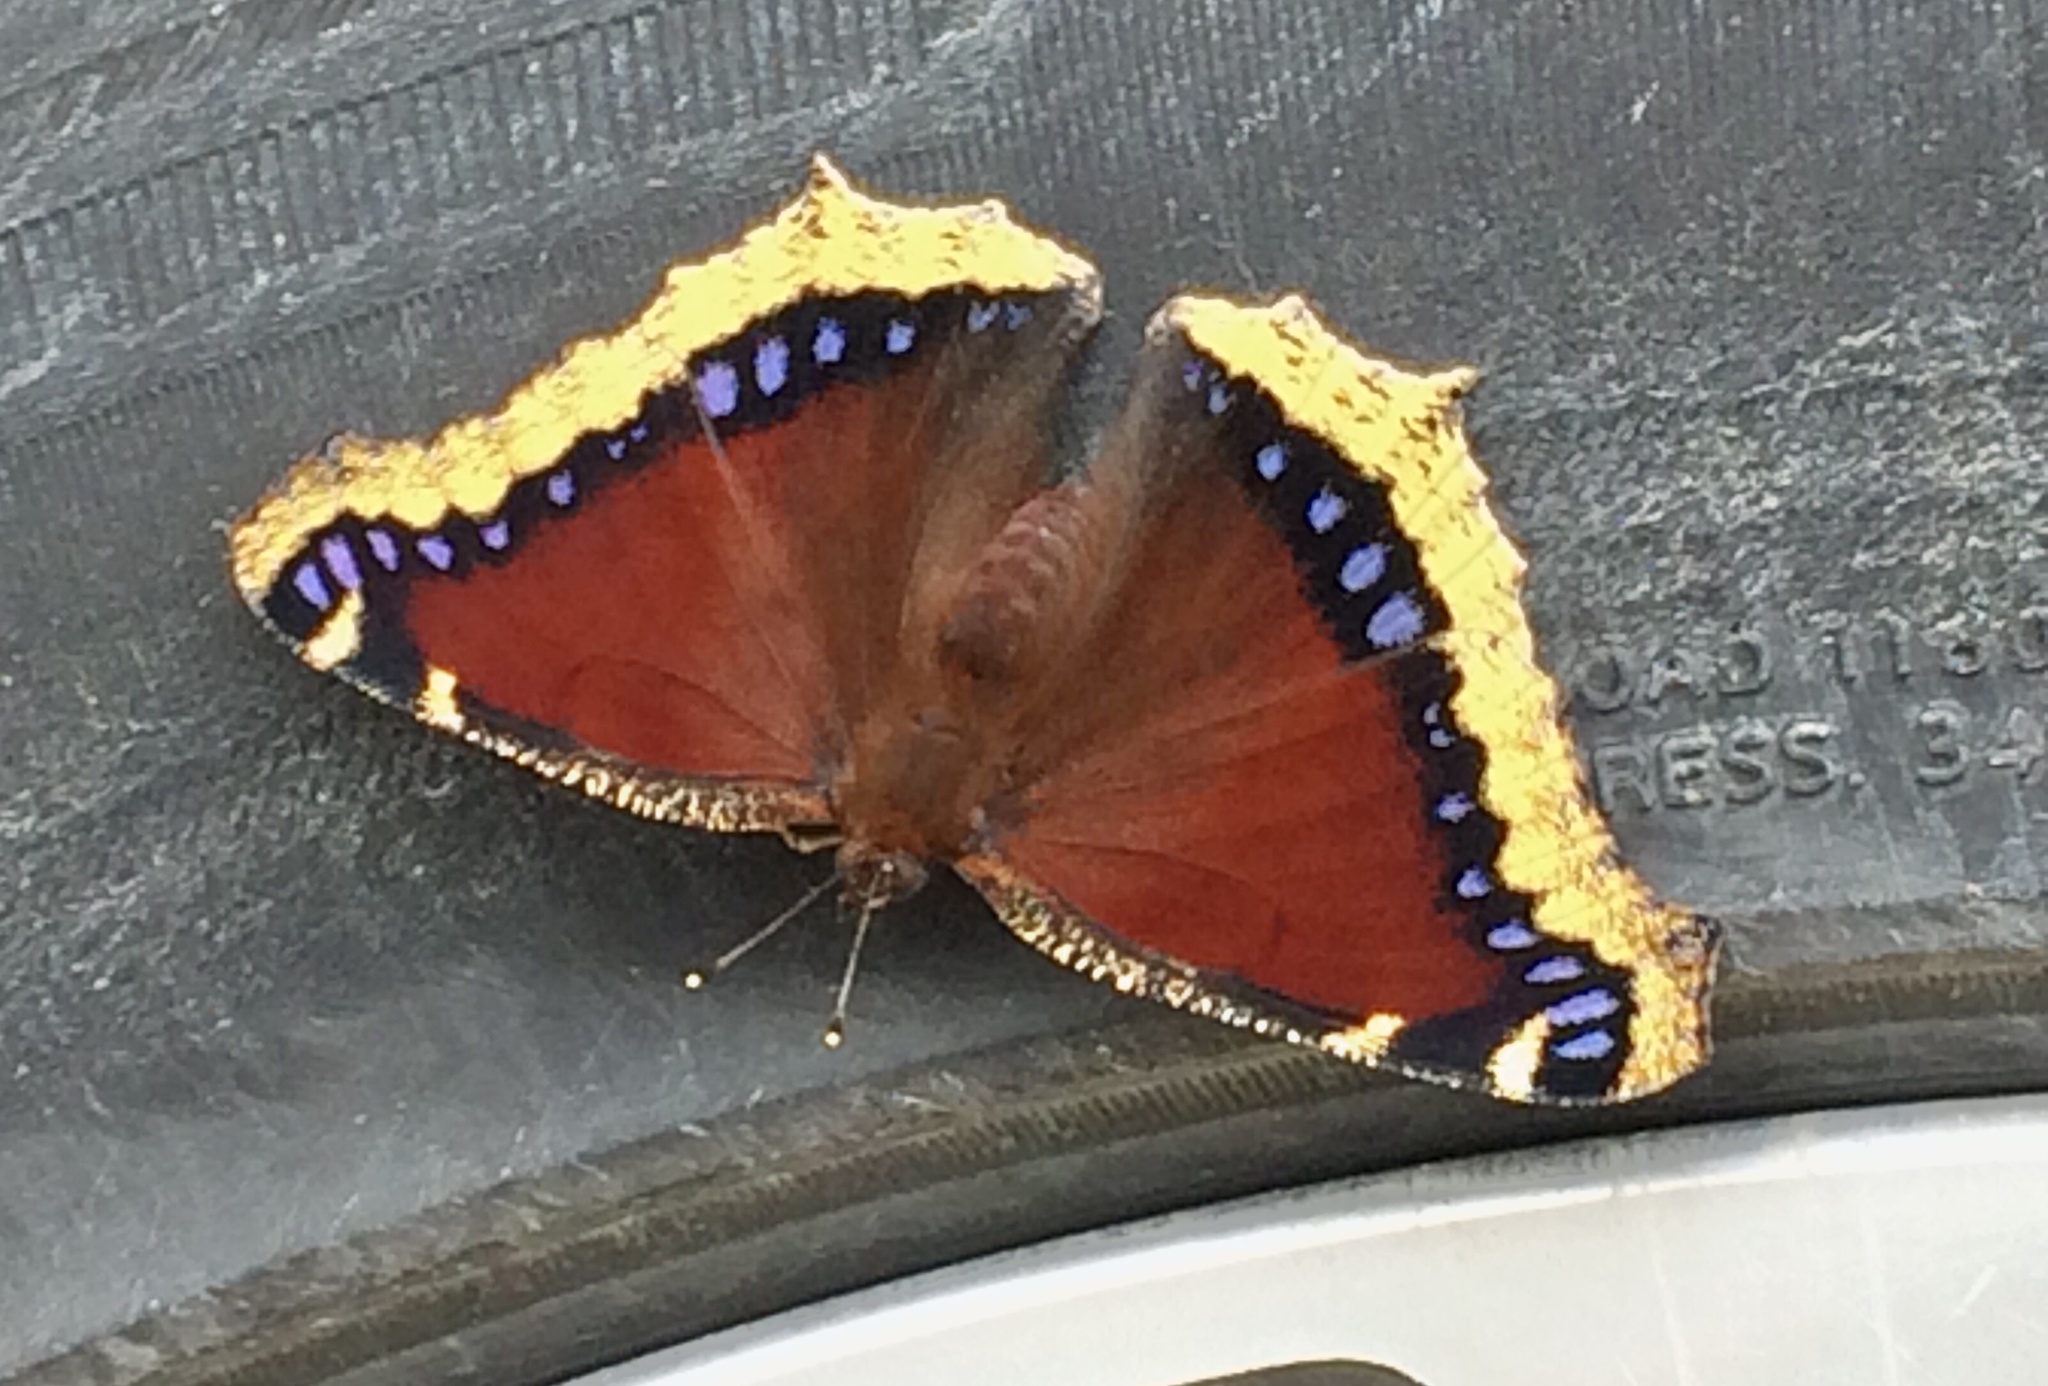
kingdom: Animalia
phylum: Arthropoda
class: Insecta
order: Lepidoptera
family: Nymphalidae
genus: Nymphalis
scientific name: Nymphalis antiopa
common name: Camberwell beauty
